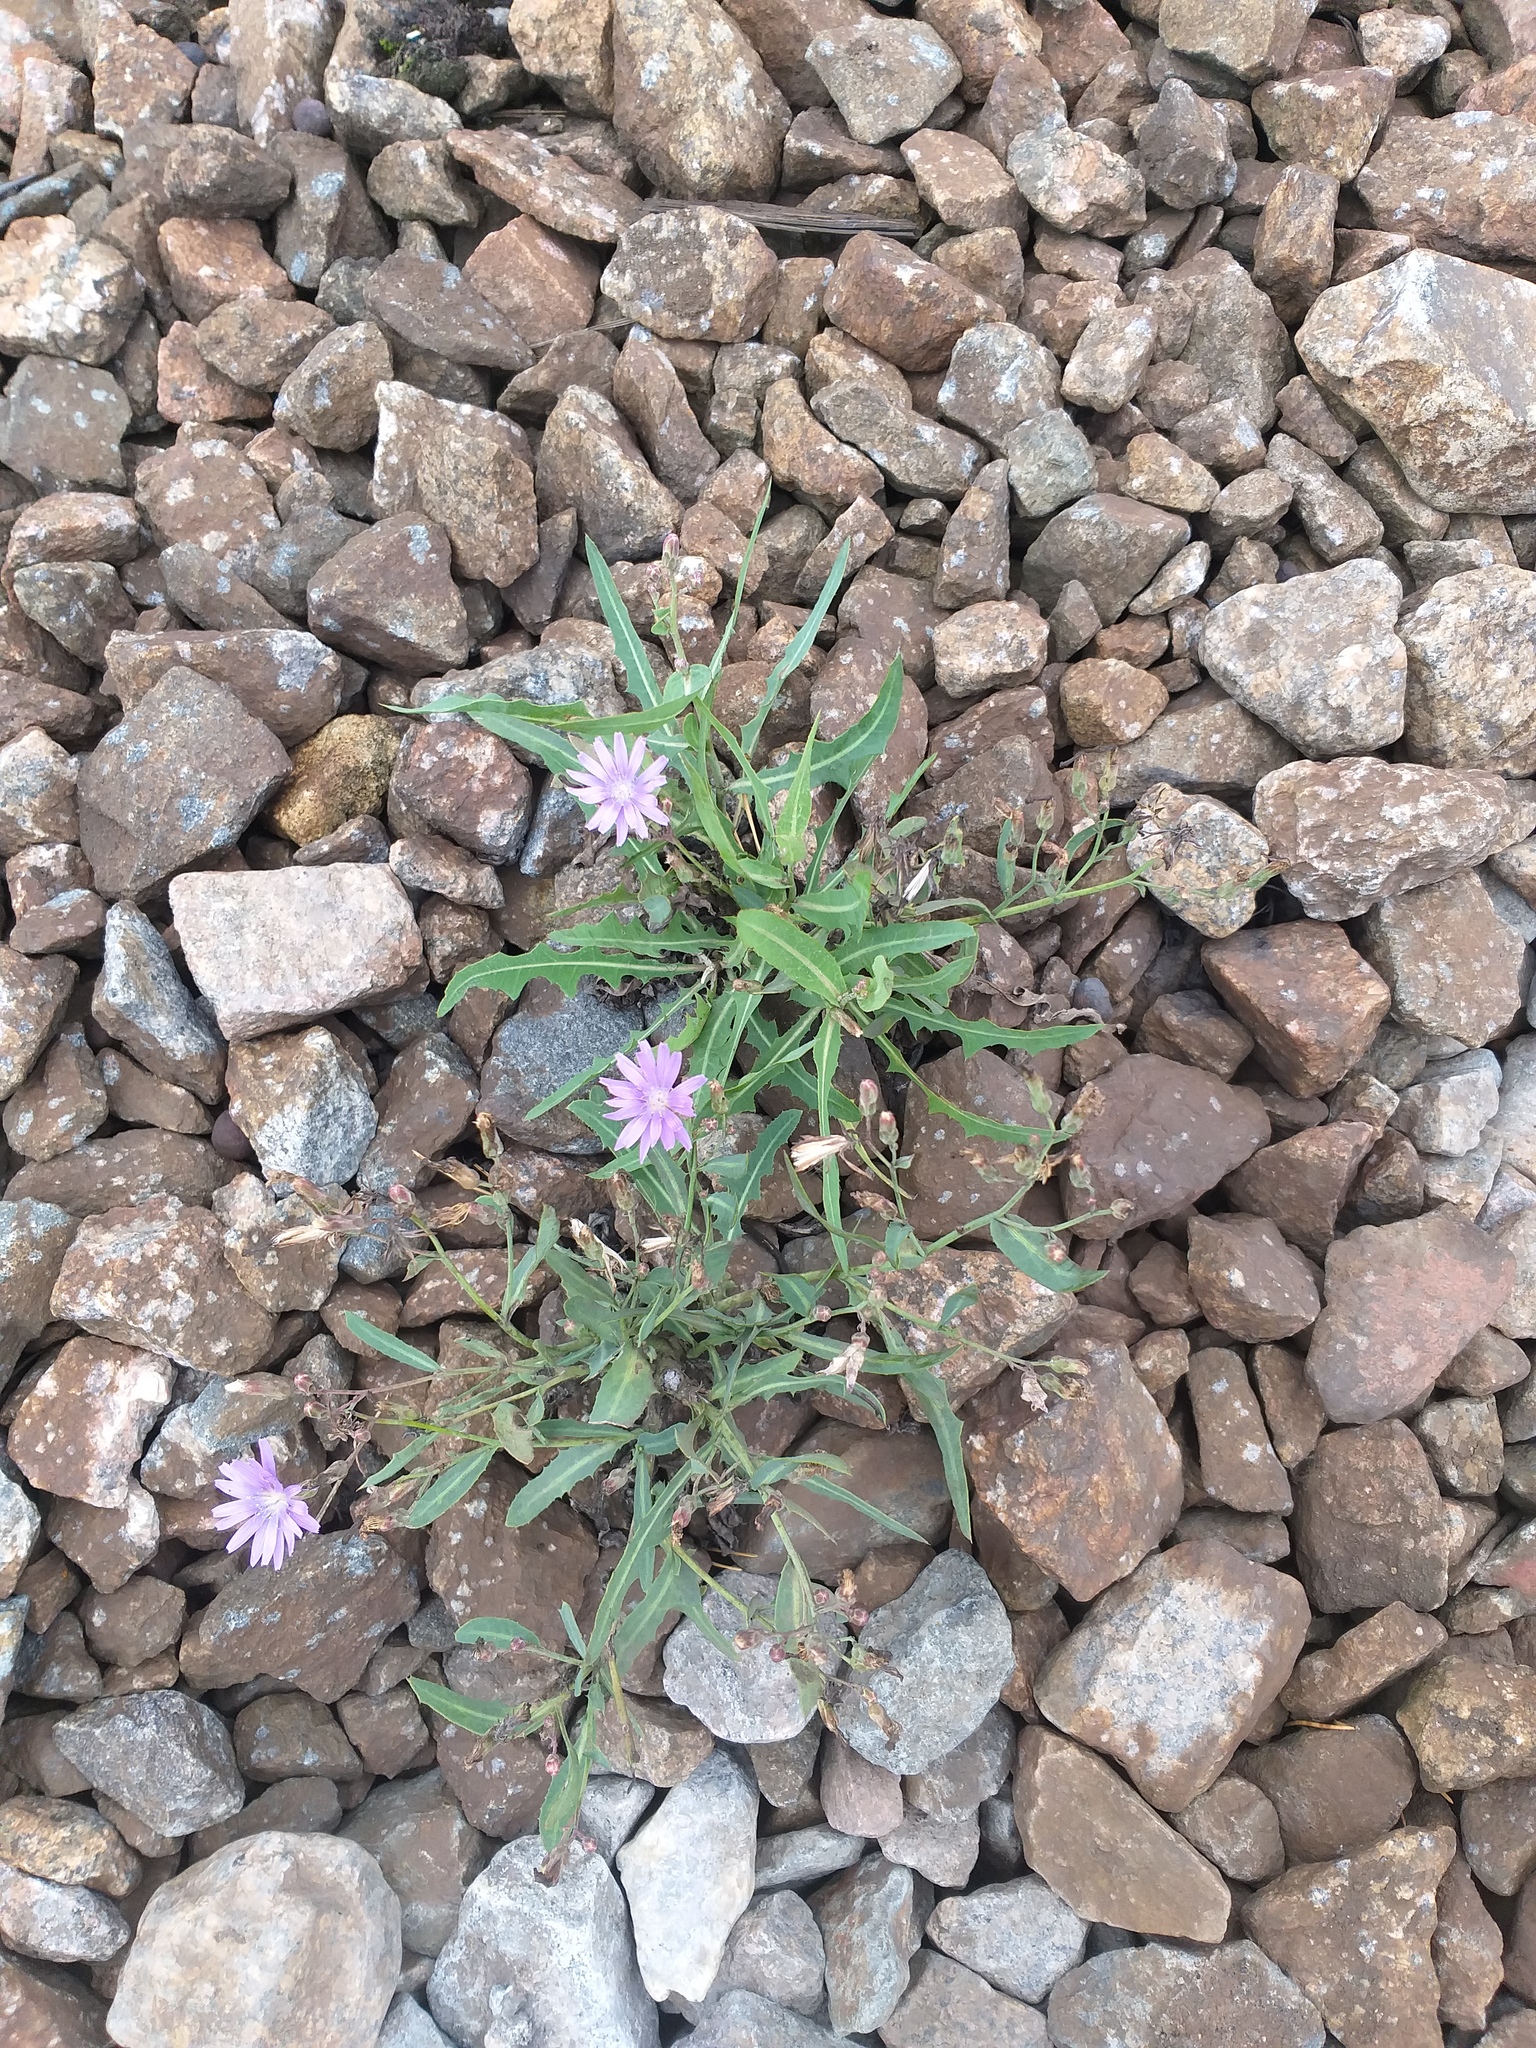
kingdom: Plantae
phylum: Tracheophyta
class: Magnoliopsida
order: Asterales
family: Asteraceae
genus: Lactuca
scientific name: Lactuca tatarica
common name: Blue lettuce
